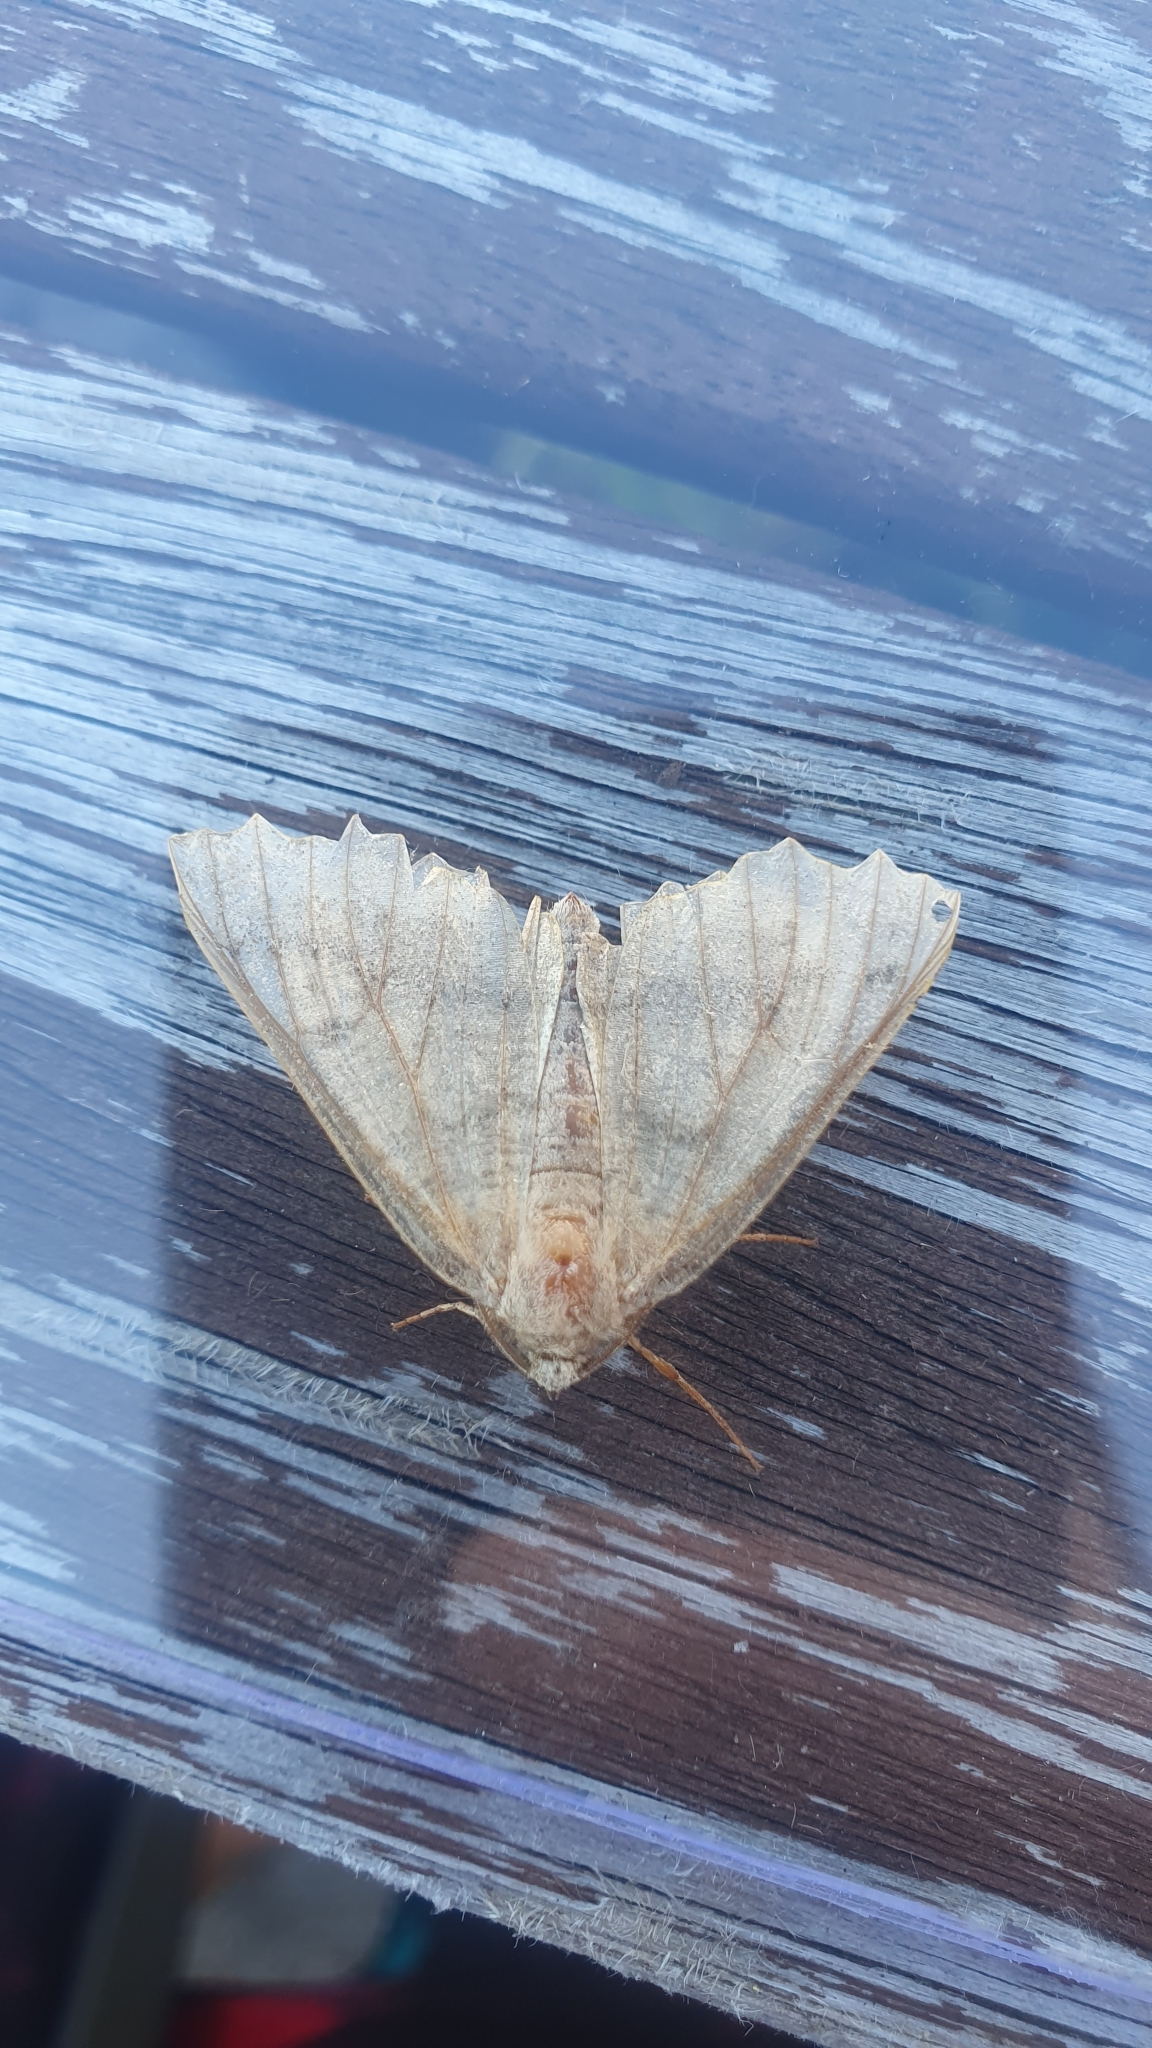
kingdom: Animalia
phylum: Arthropoda
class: Insecta
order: Lepidoptera
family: Geometridae
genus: Odontopera
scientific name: Odontopera bidentata
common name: Scalloped hazel
